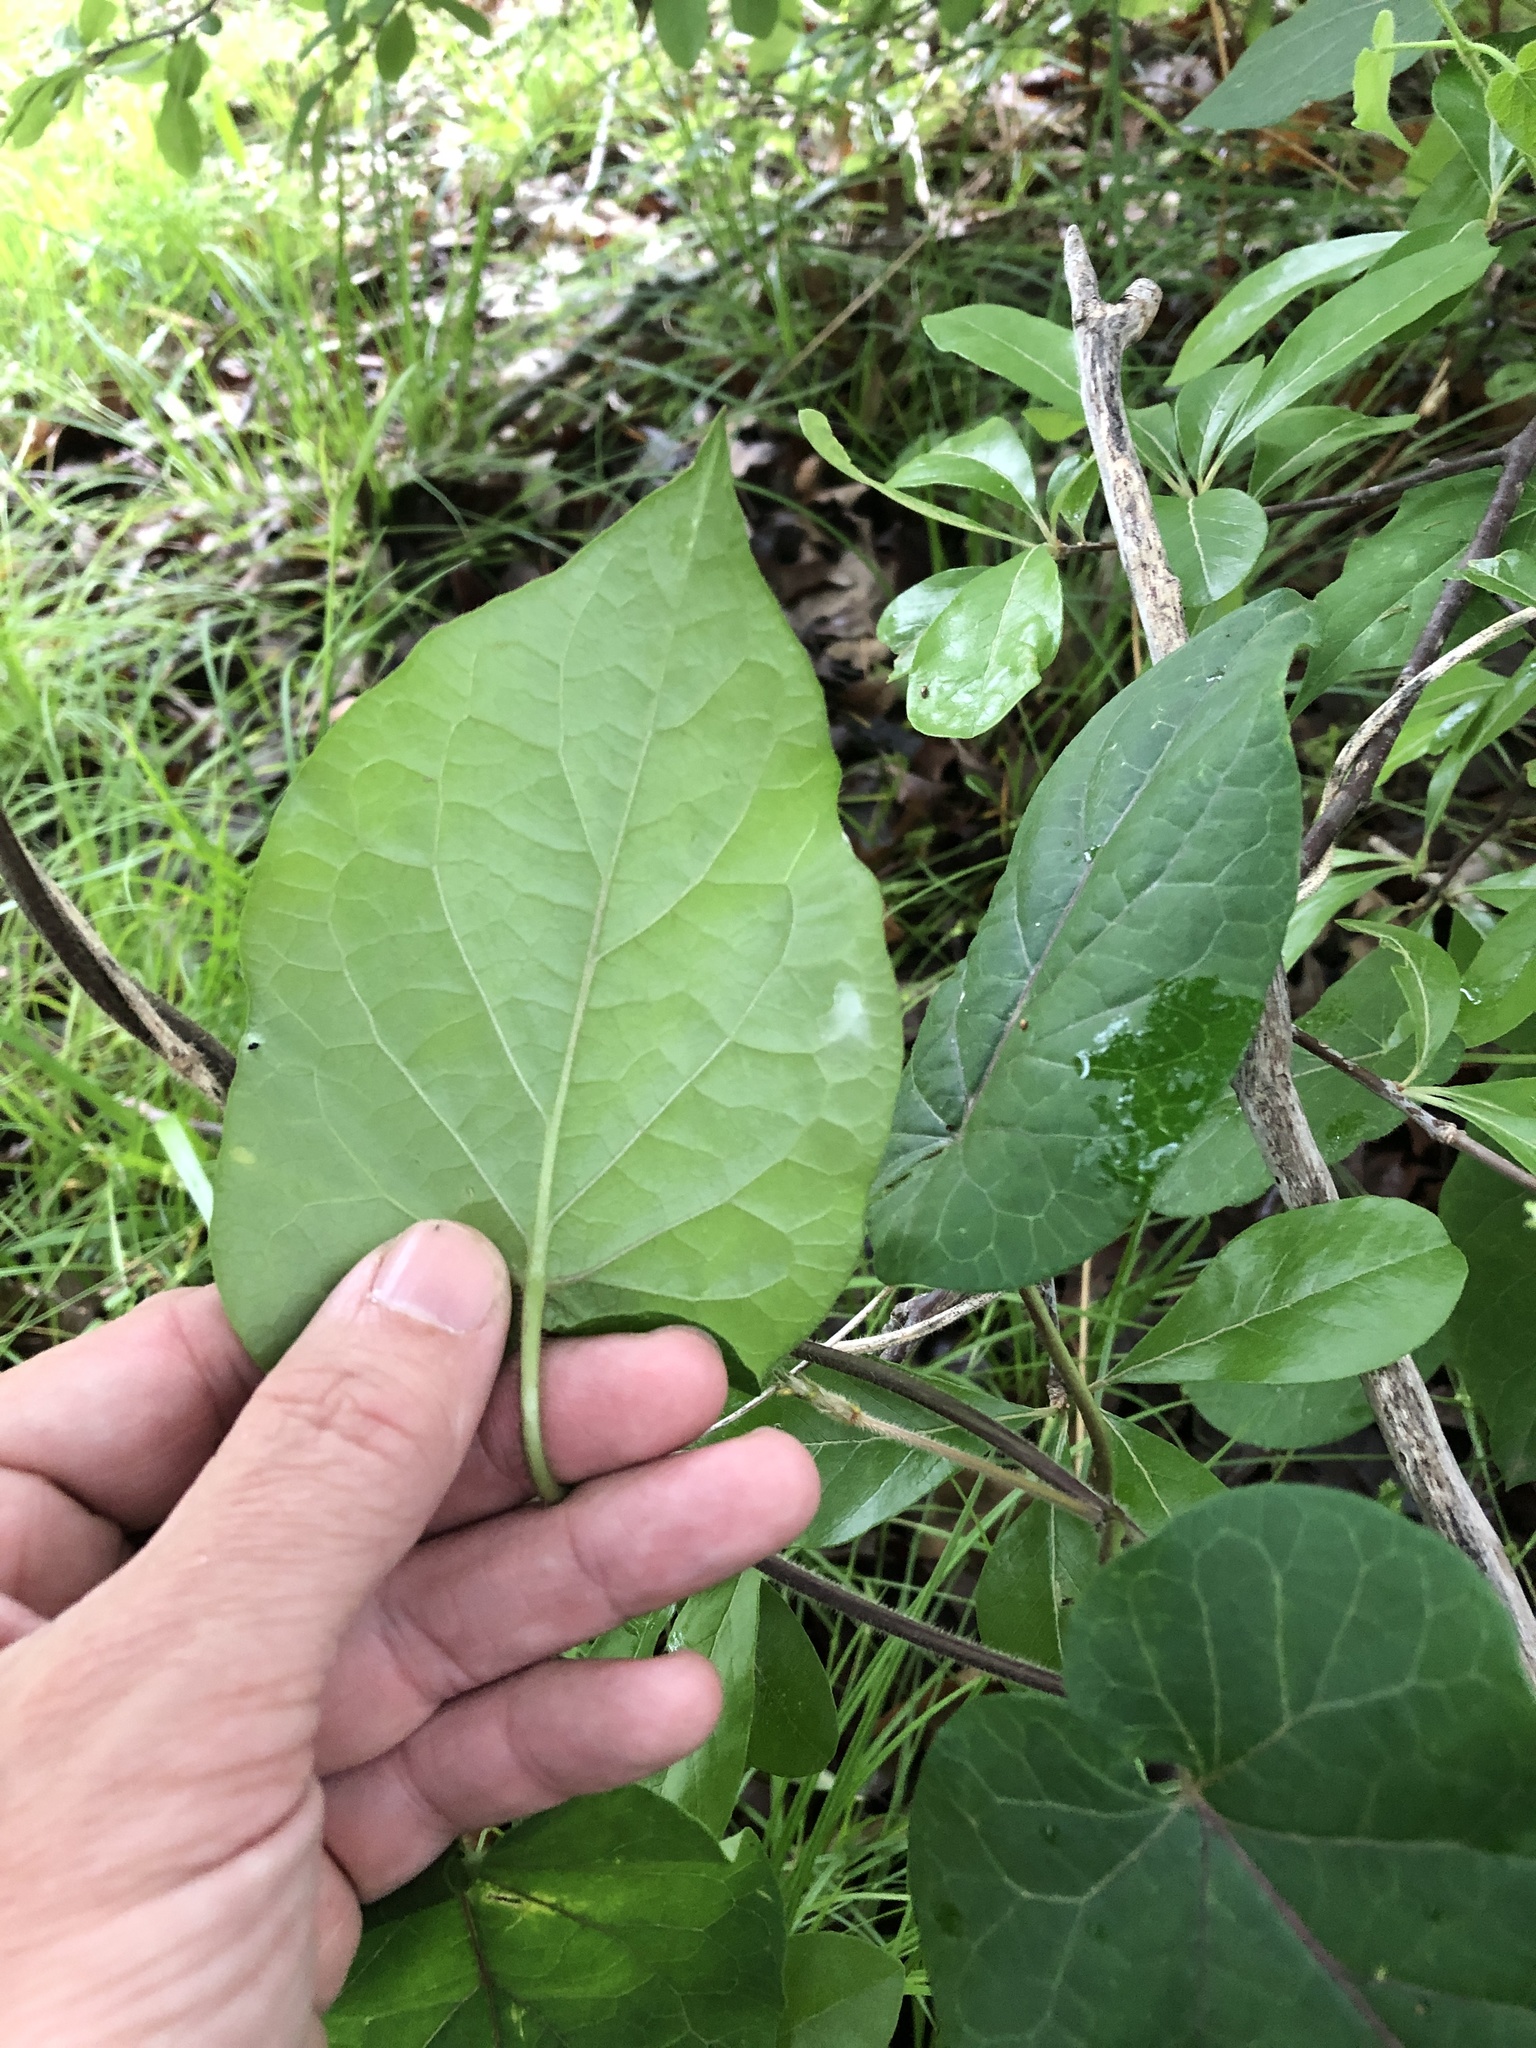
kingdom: Plantae
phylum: Tracheophyta
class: Magnoliopsida
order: Gentianales
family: Apocynaceae
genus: Gonolobus
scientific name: Gonolobus suberosus
